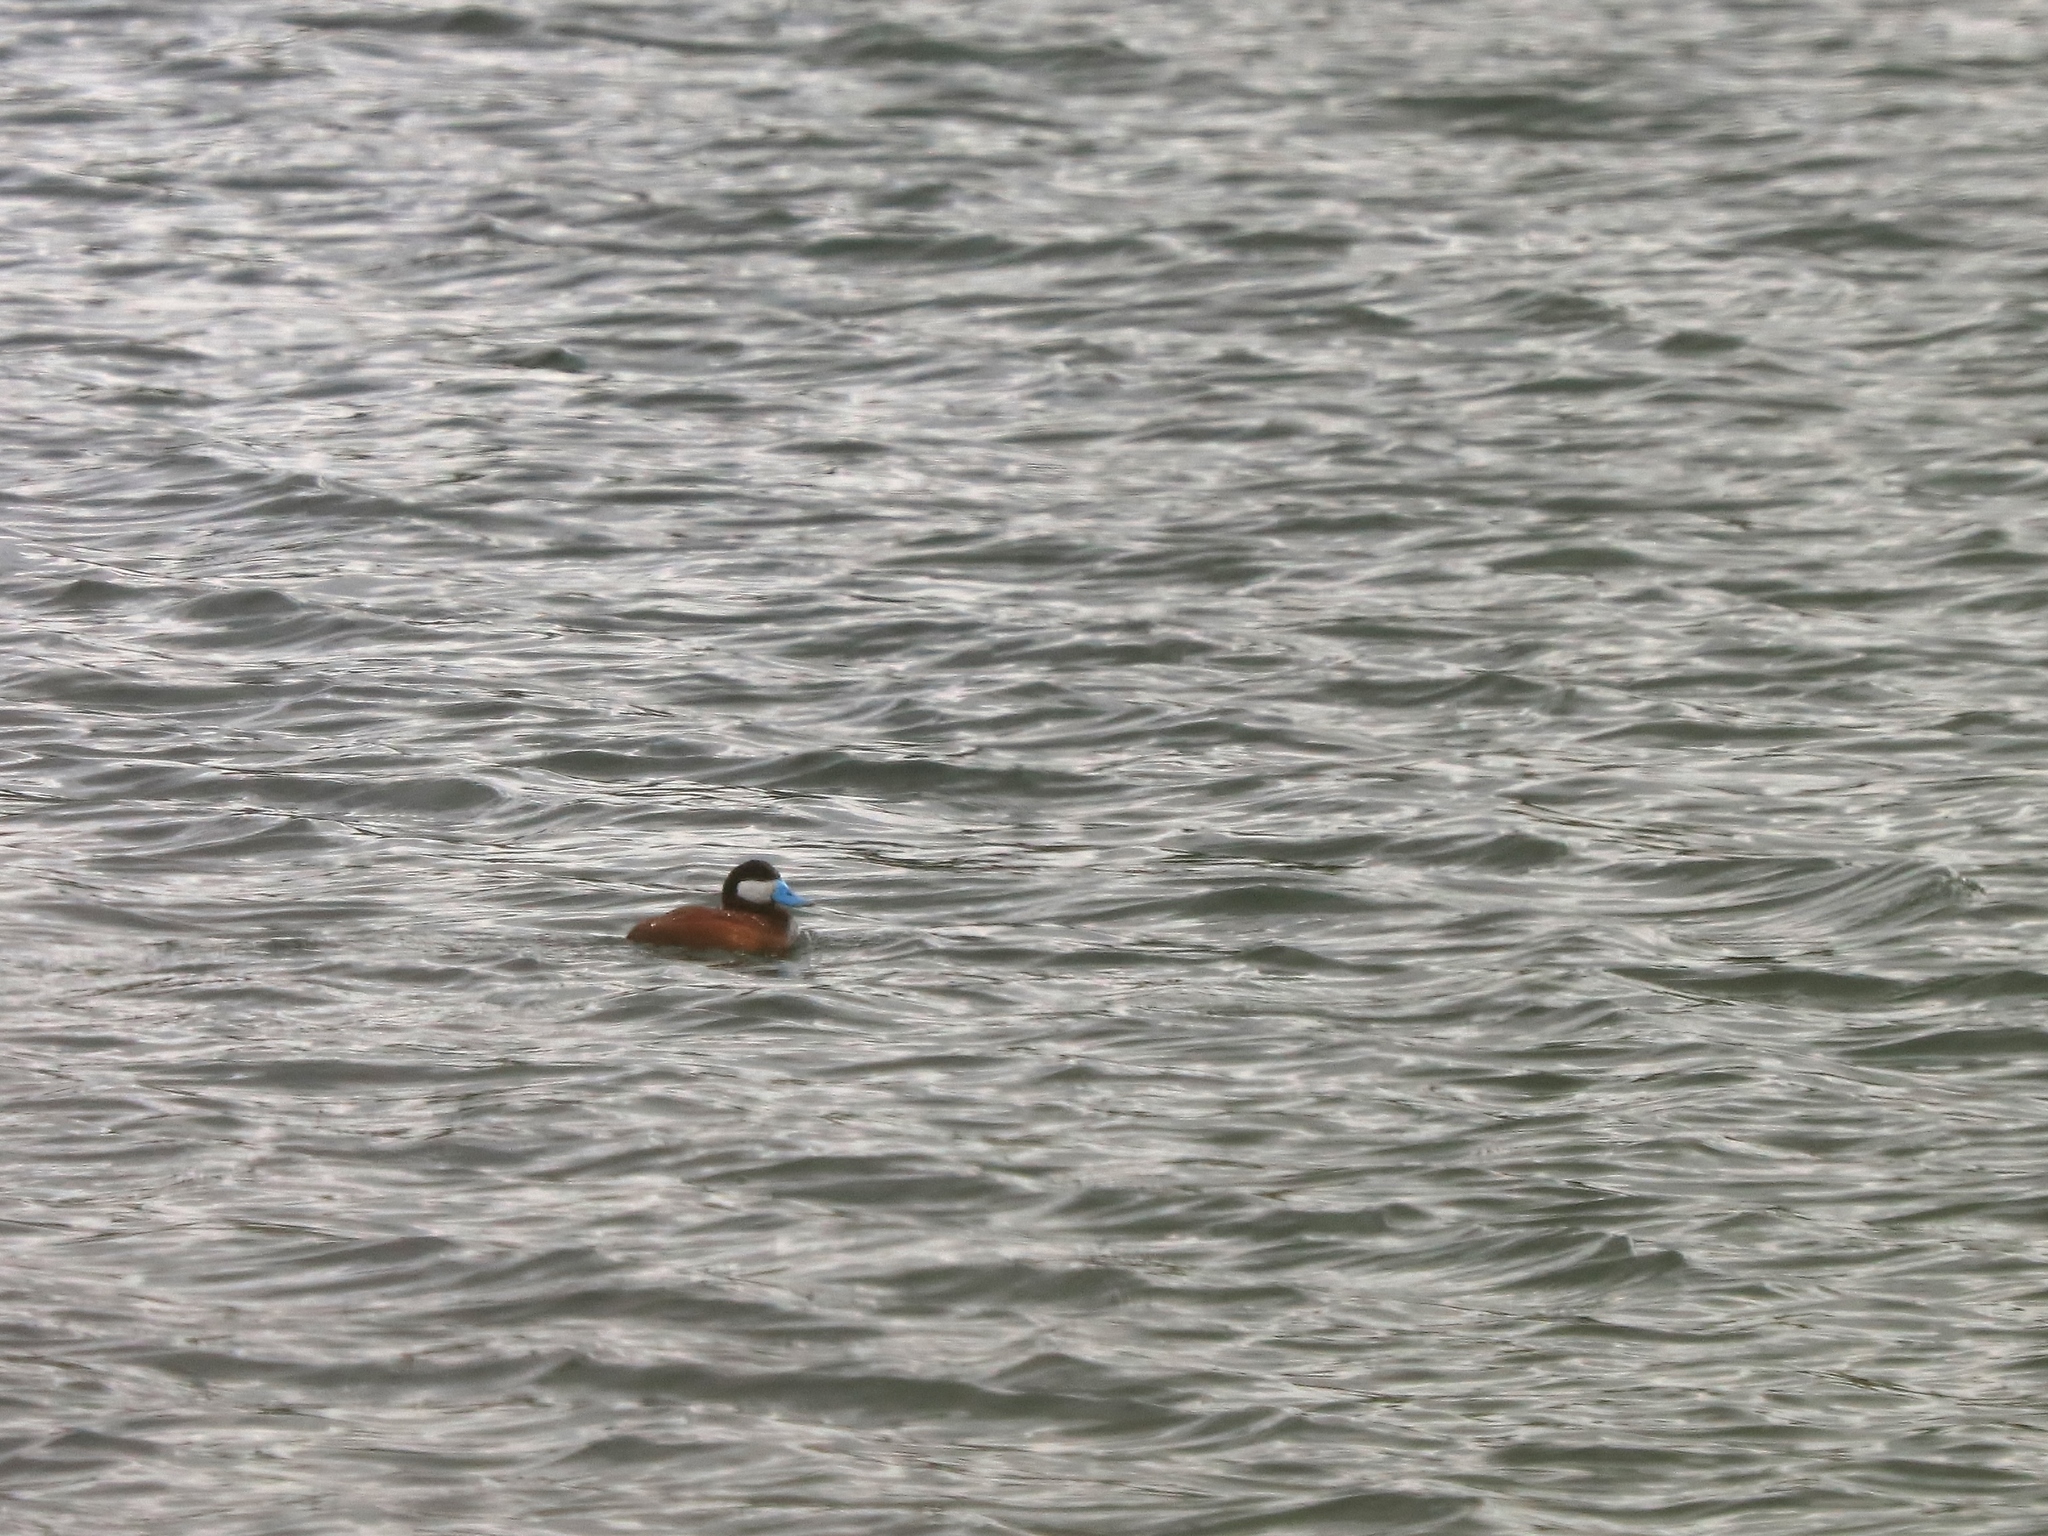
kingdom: Animalia
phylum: Chordata
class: Aves
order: Anseriformes
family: Anatidae
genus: Oxyura
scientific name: Oxyura jamaicensis
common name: Ruddy duck
